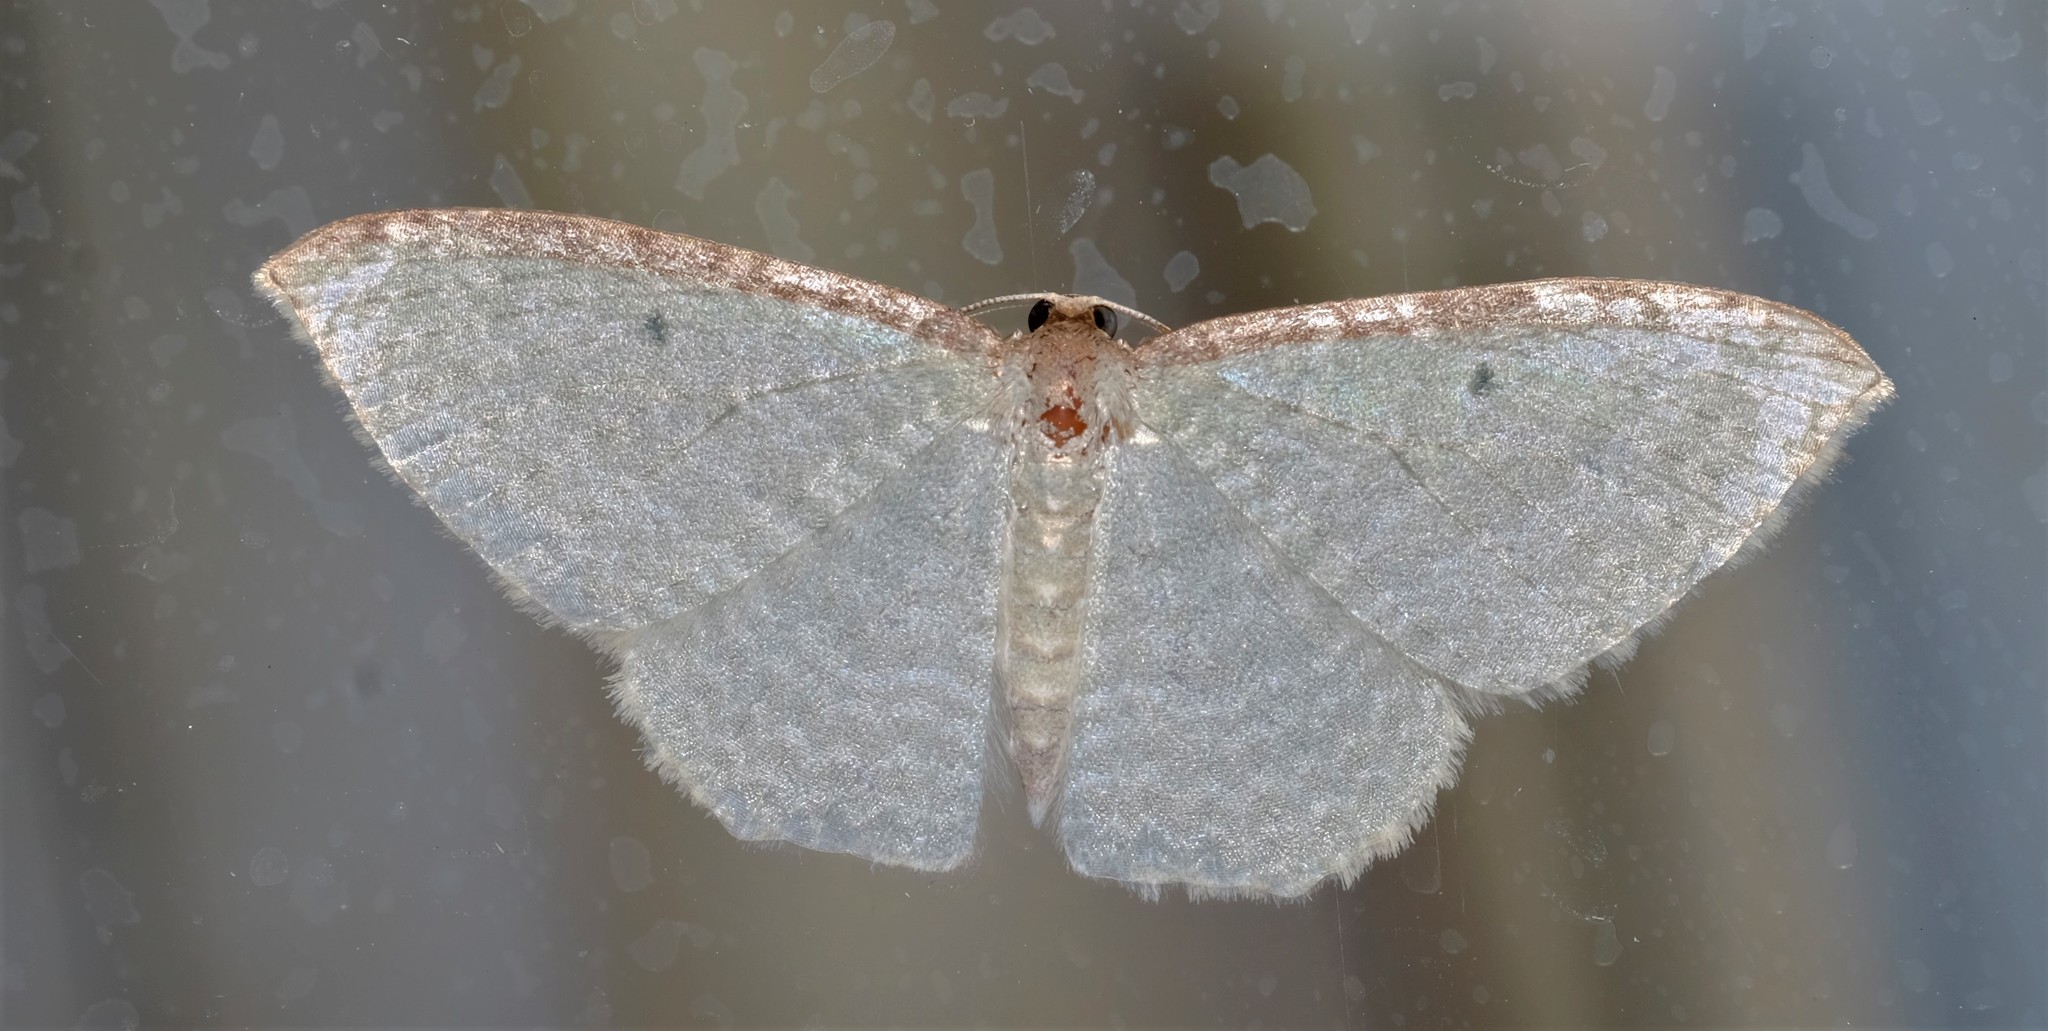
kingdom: Animalia
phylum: Arthropoda
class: Insecta
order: Lepidoptera
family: Geometridae
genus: Poecilasthena
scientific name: Poecilasthena
